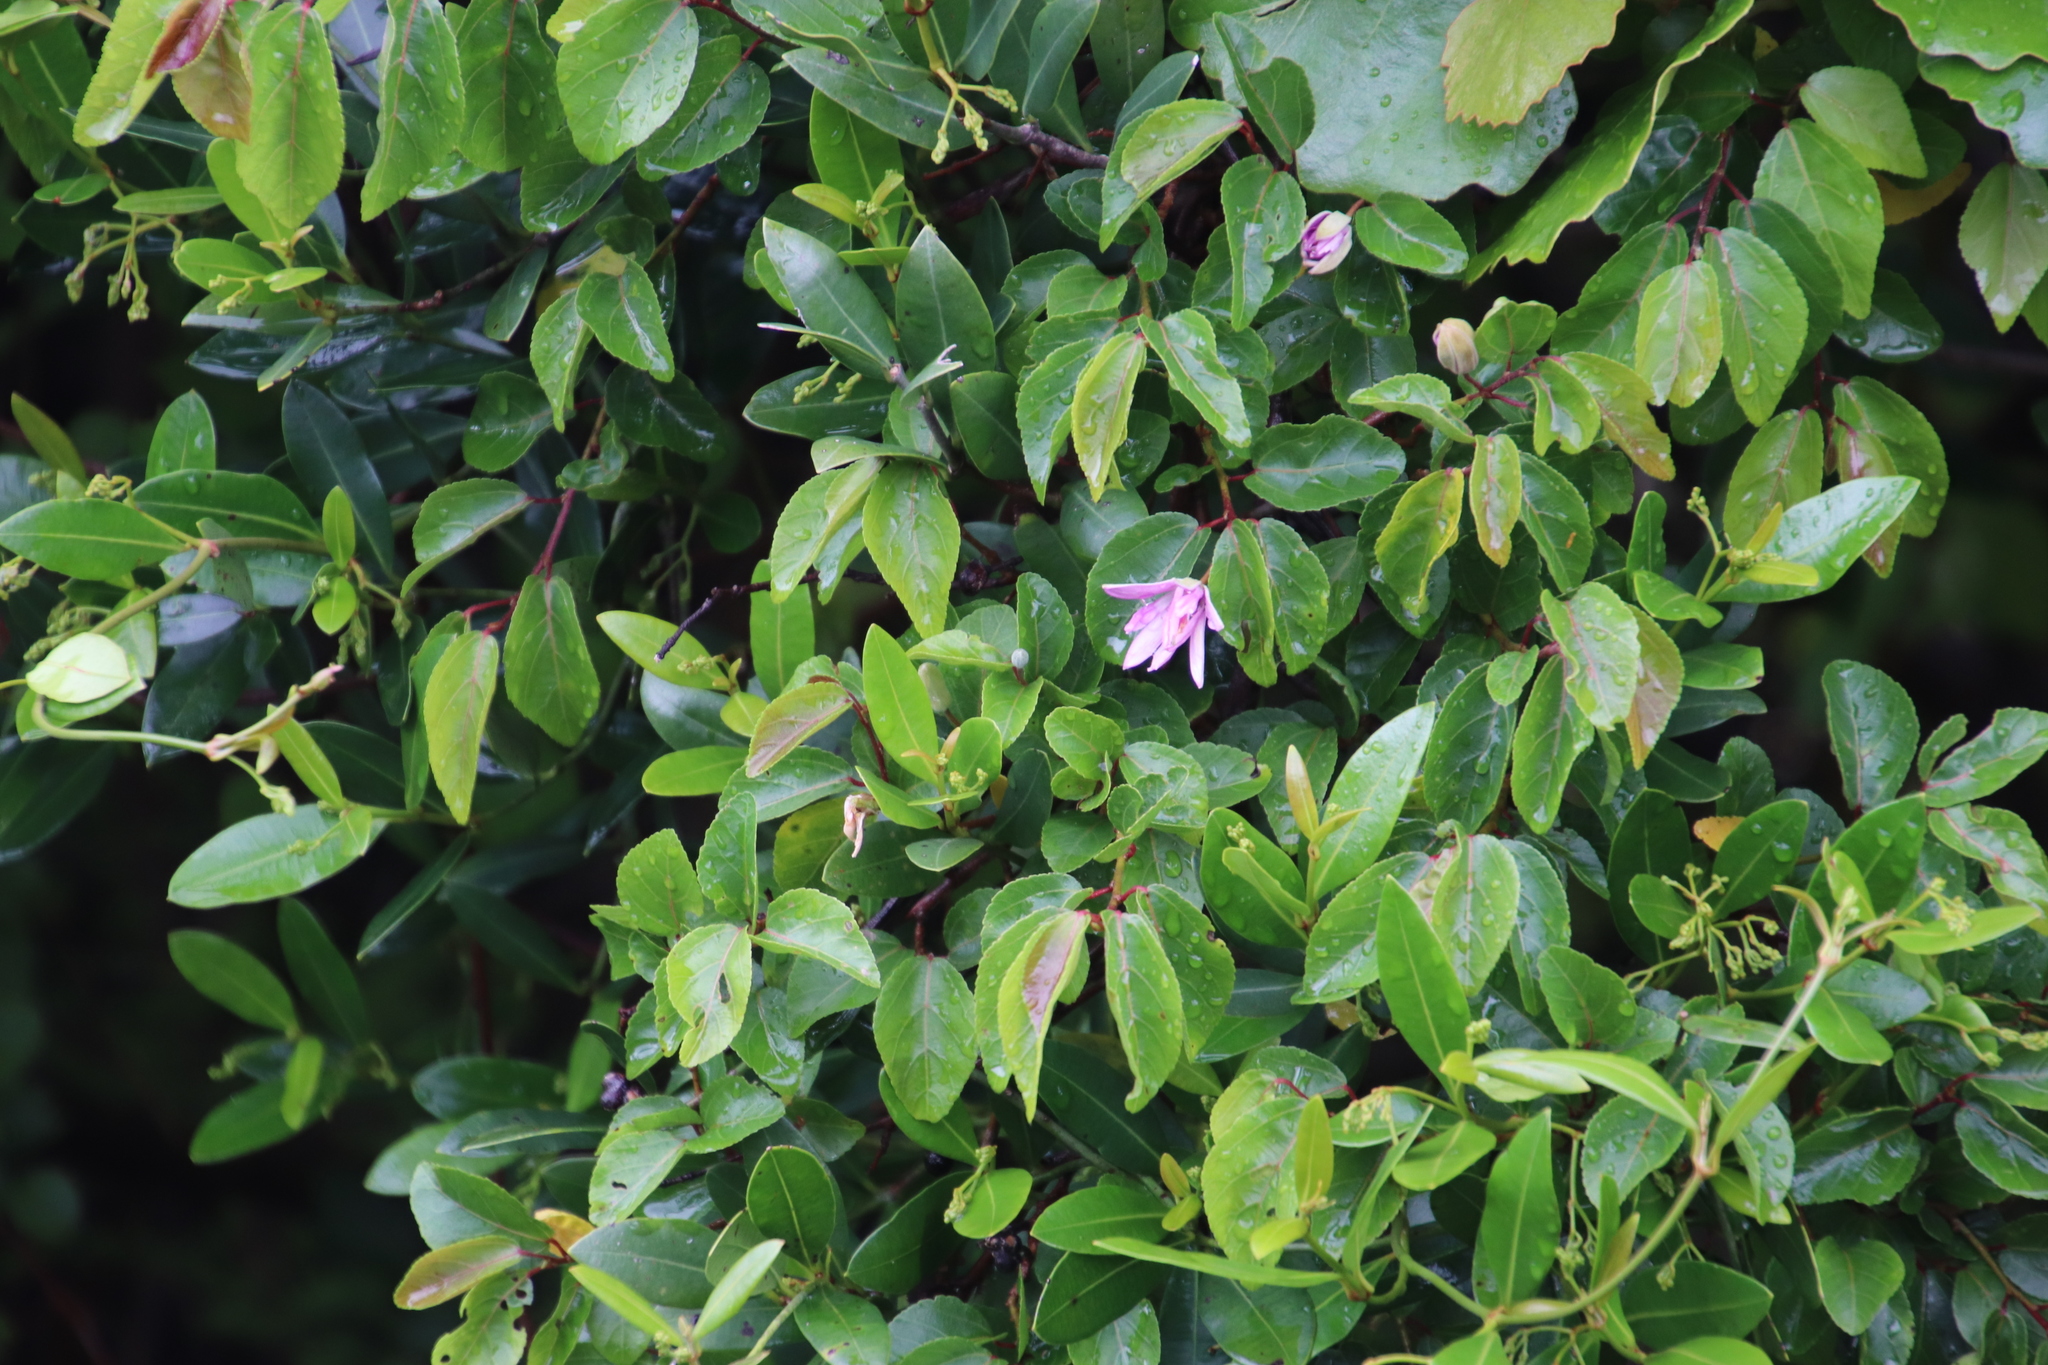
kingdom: Plantae
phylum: Tracheophyta
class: Magnoliopsida
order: Malvales
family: Malvaceae
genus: Grewia
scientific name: Grewia occidentalis
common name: Crossberry
